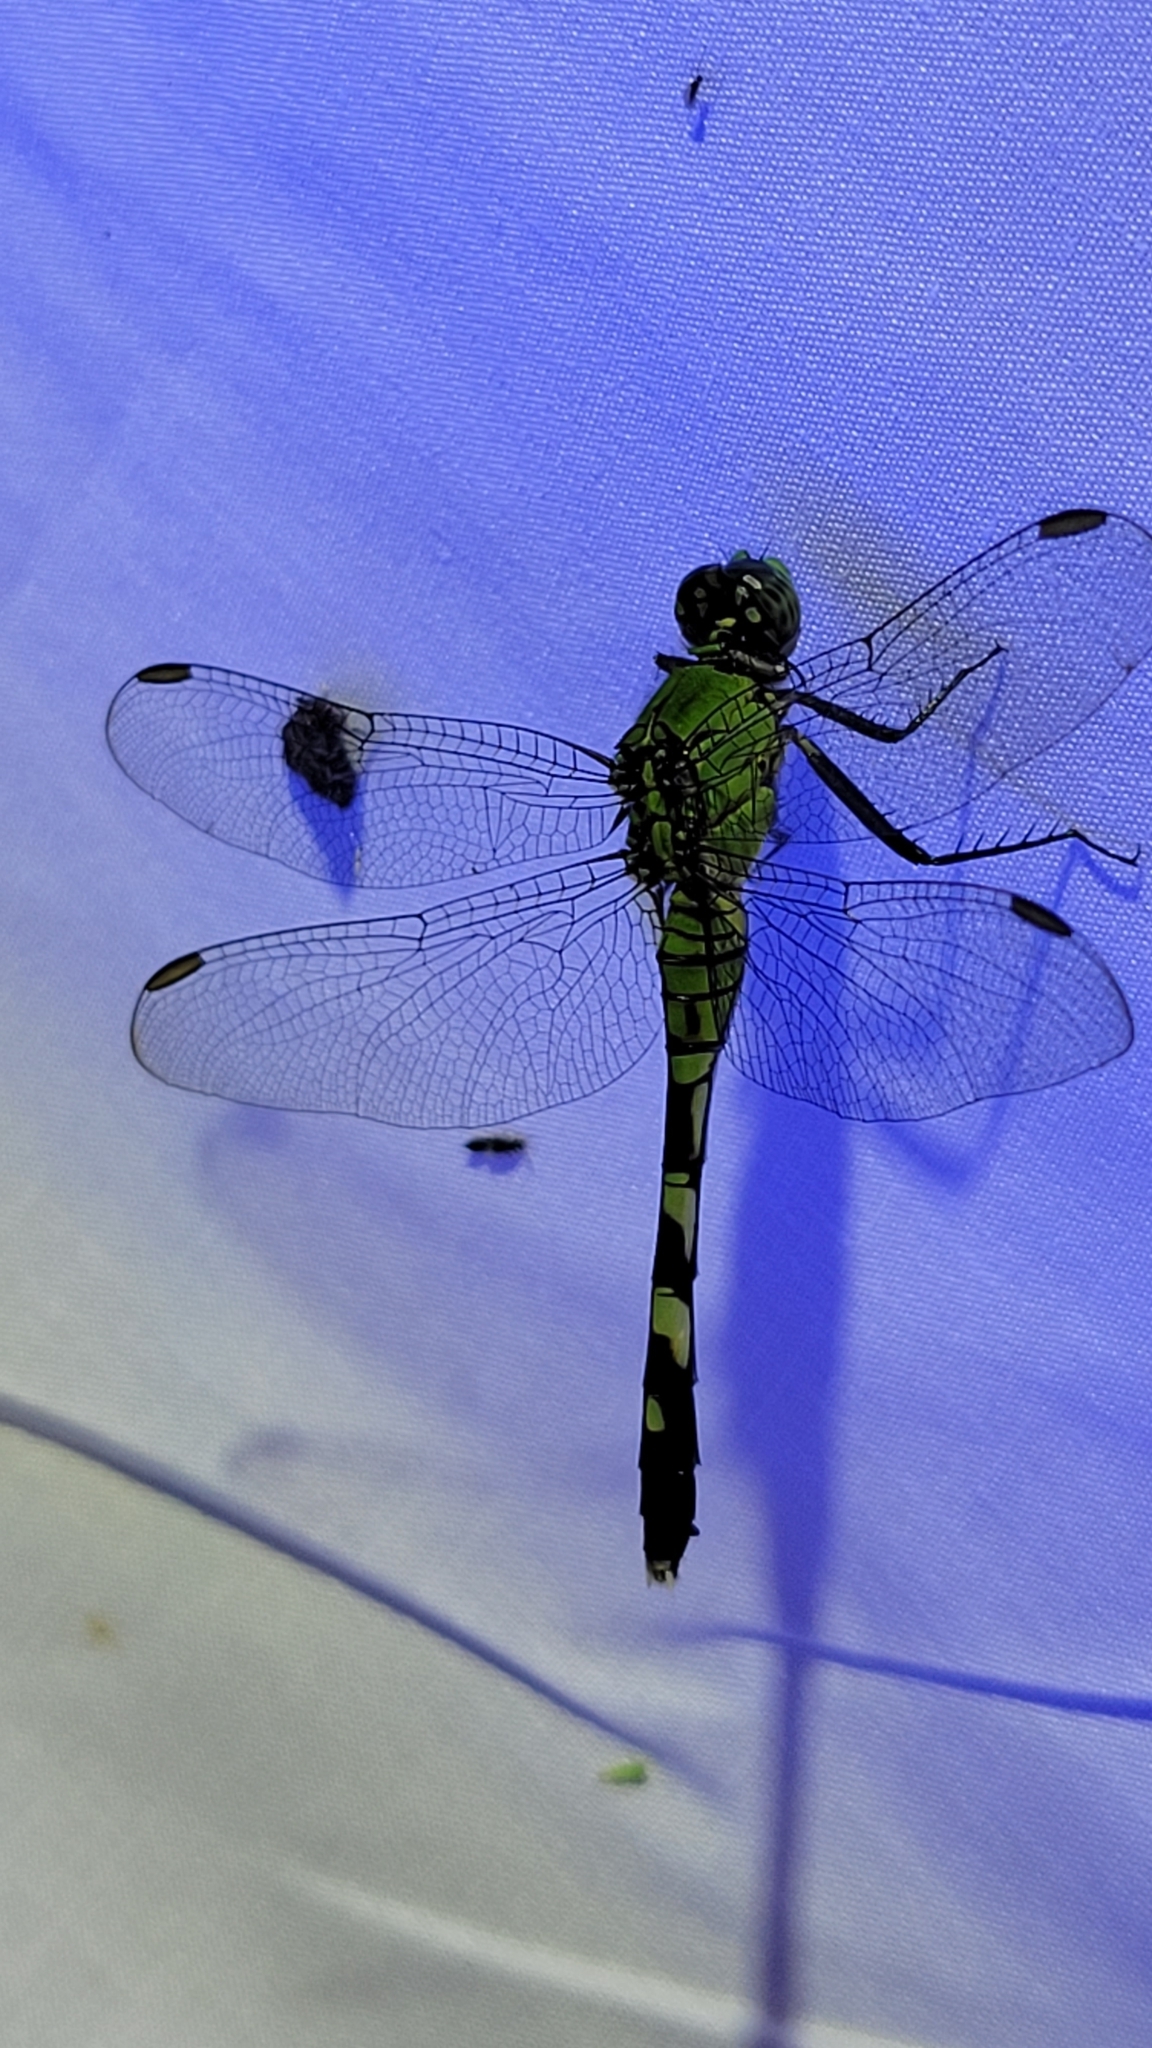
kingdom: Animalia
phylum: Arthropoda
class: Insecta
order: Odonata
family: Libellulidae
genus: Erythemis
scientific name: Erythemis simplicicollis
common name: Eastern pondhawk
